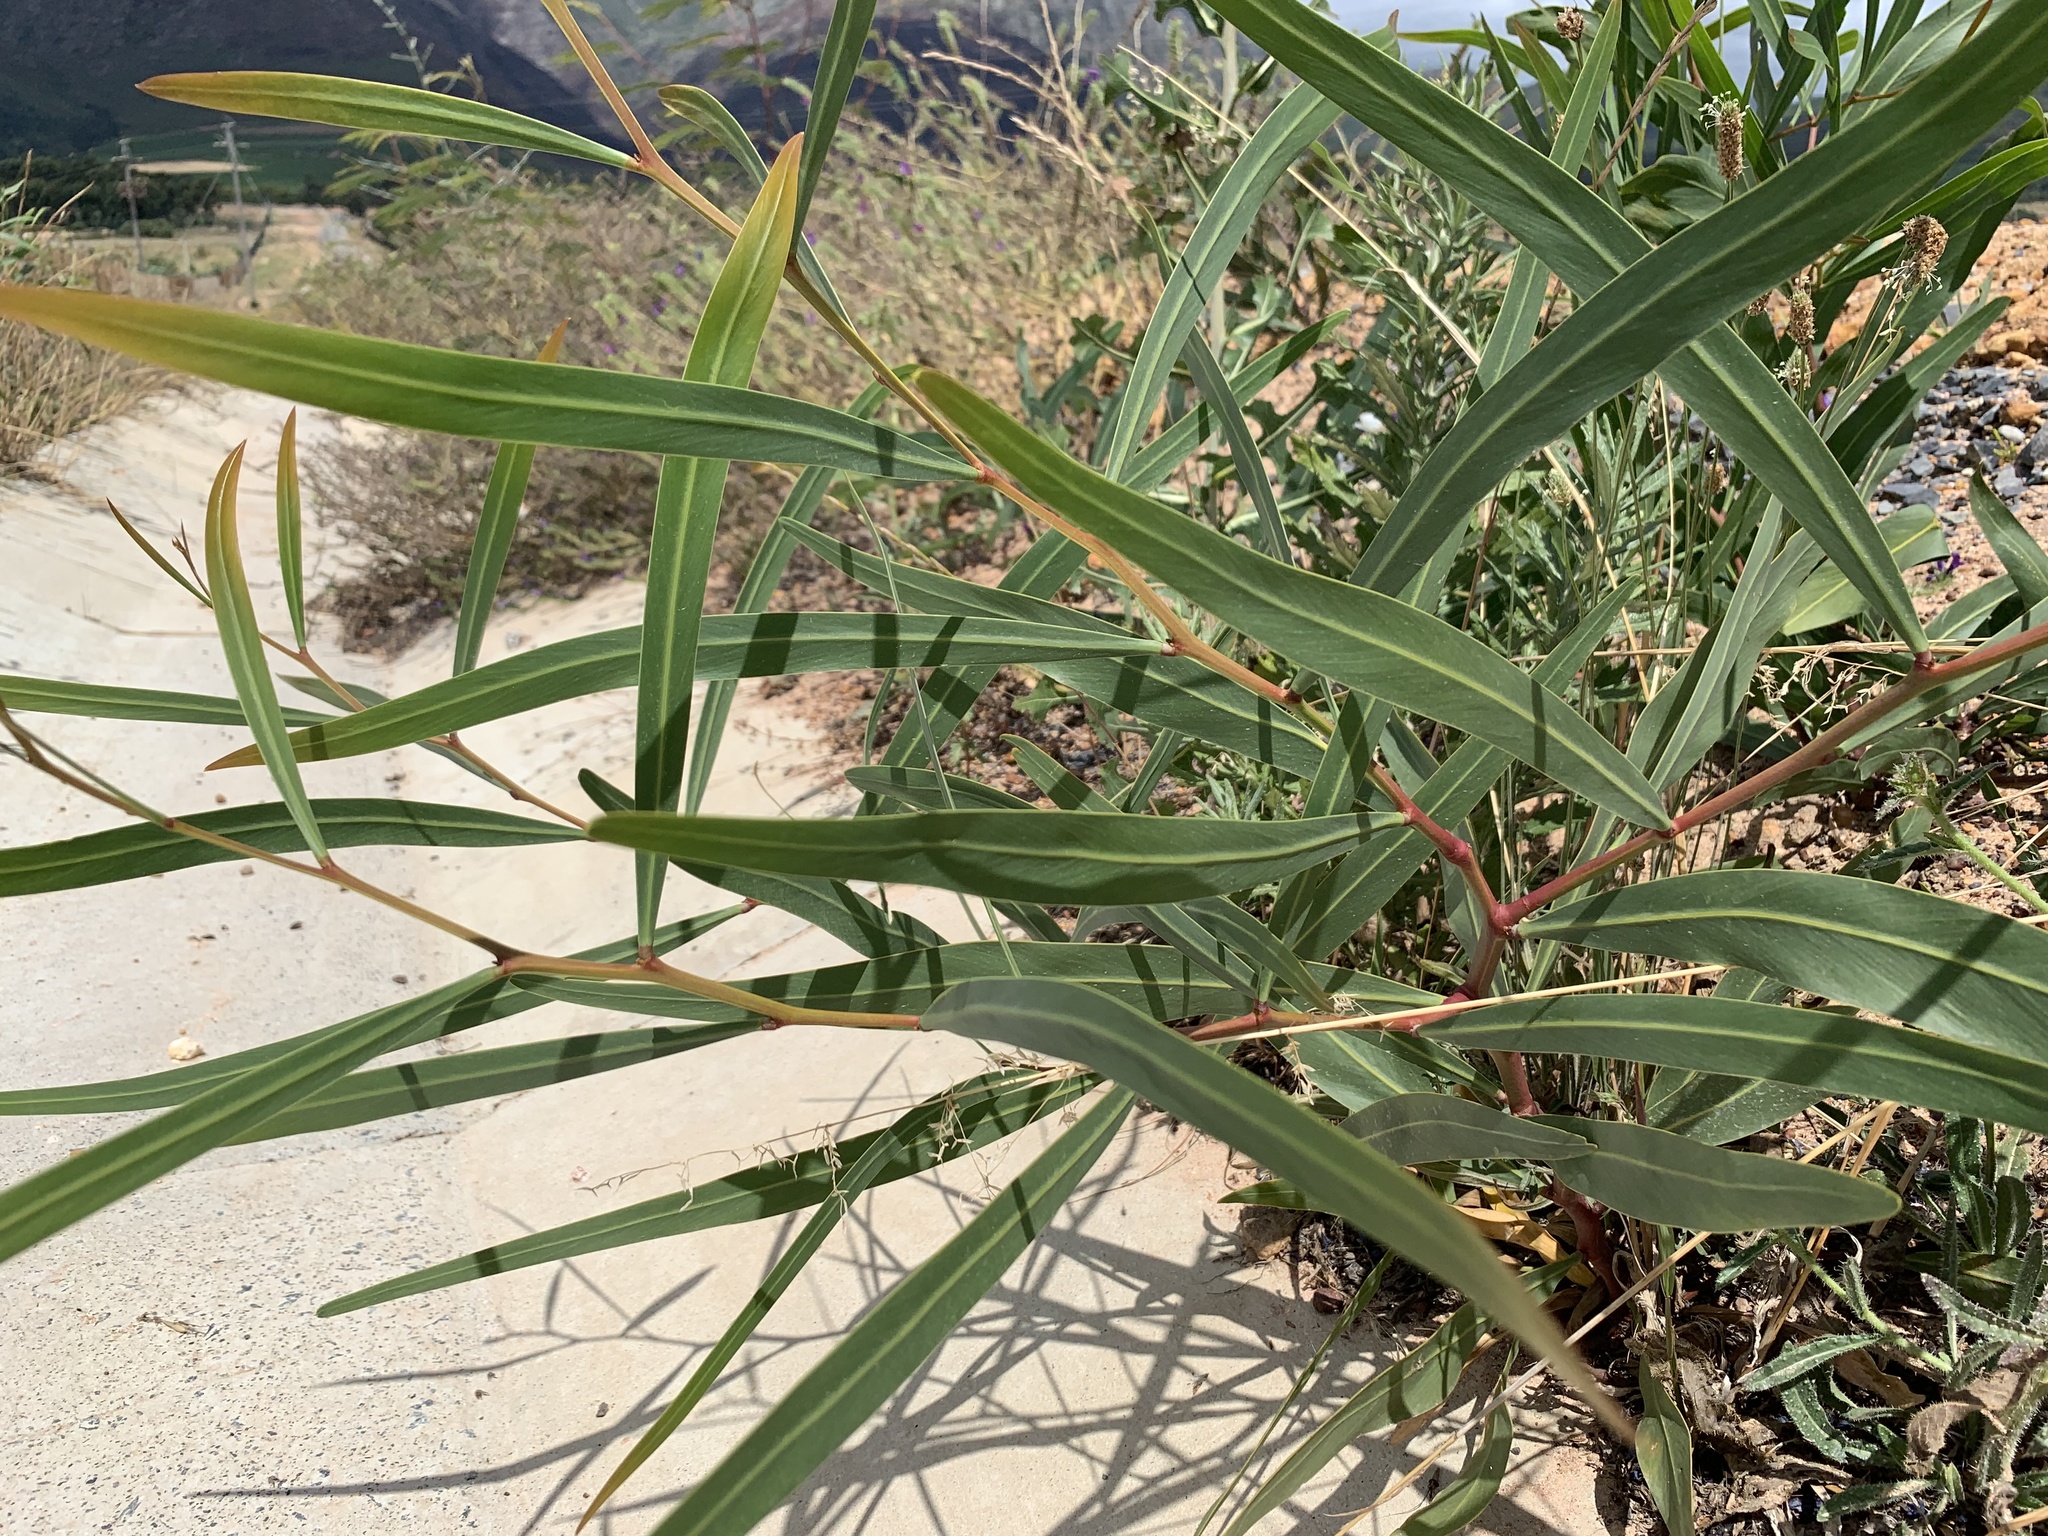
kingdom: Plantae
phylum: Tracheophyta
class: Magnoliopsida
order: Fabales
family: Fabaceae
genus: Acacia
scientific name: Acacia saligna
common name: Orange wattle
